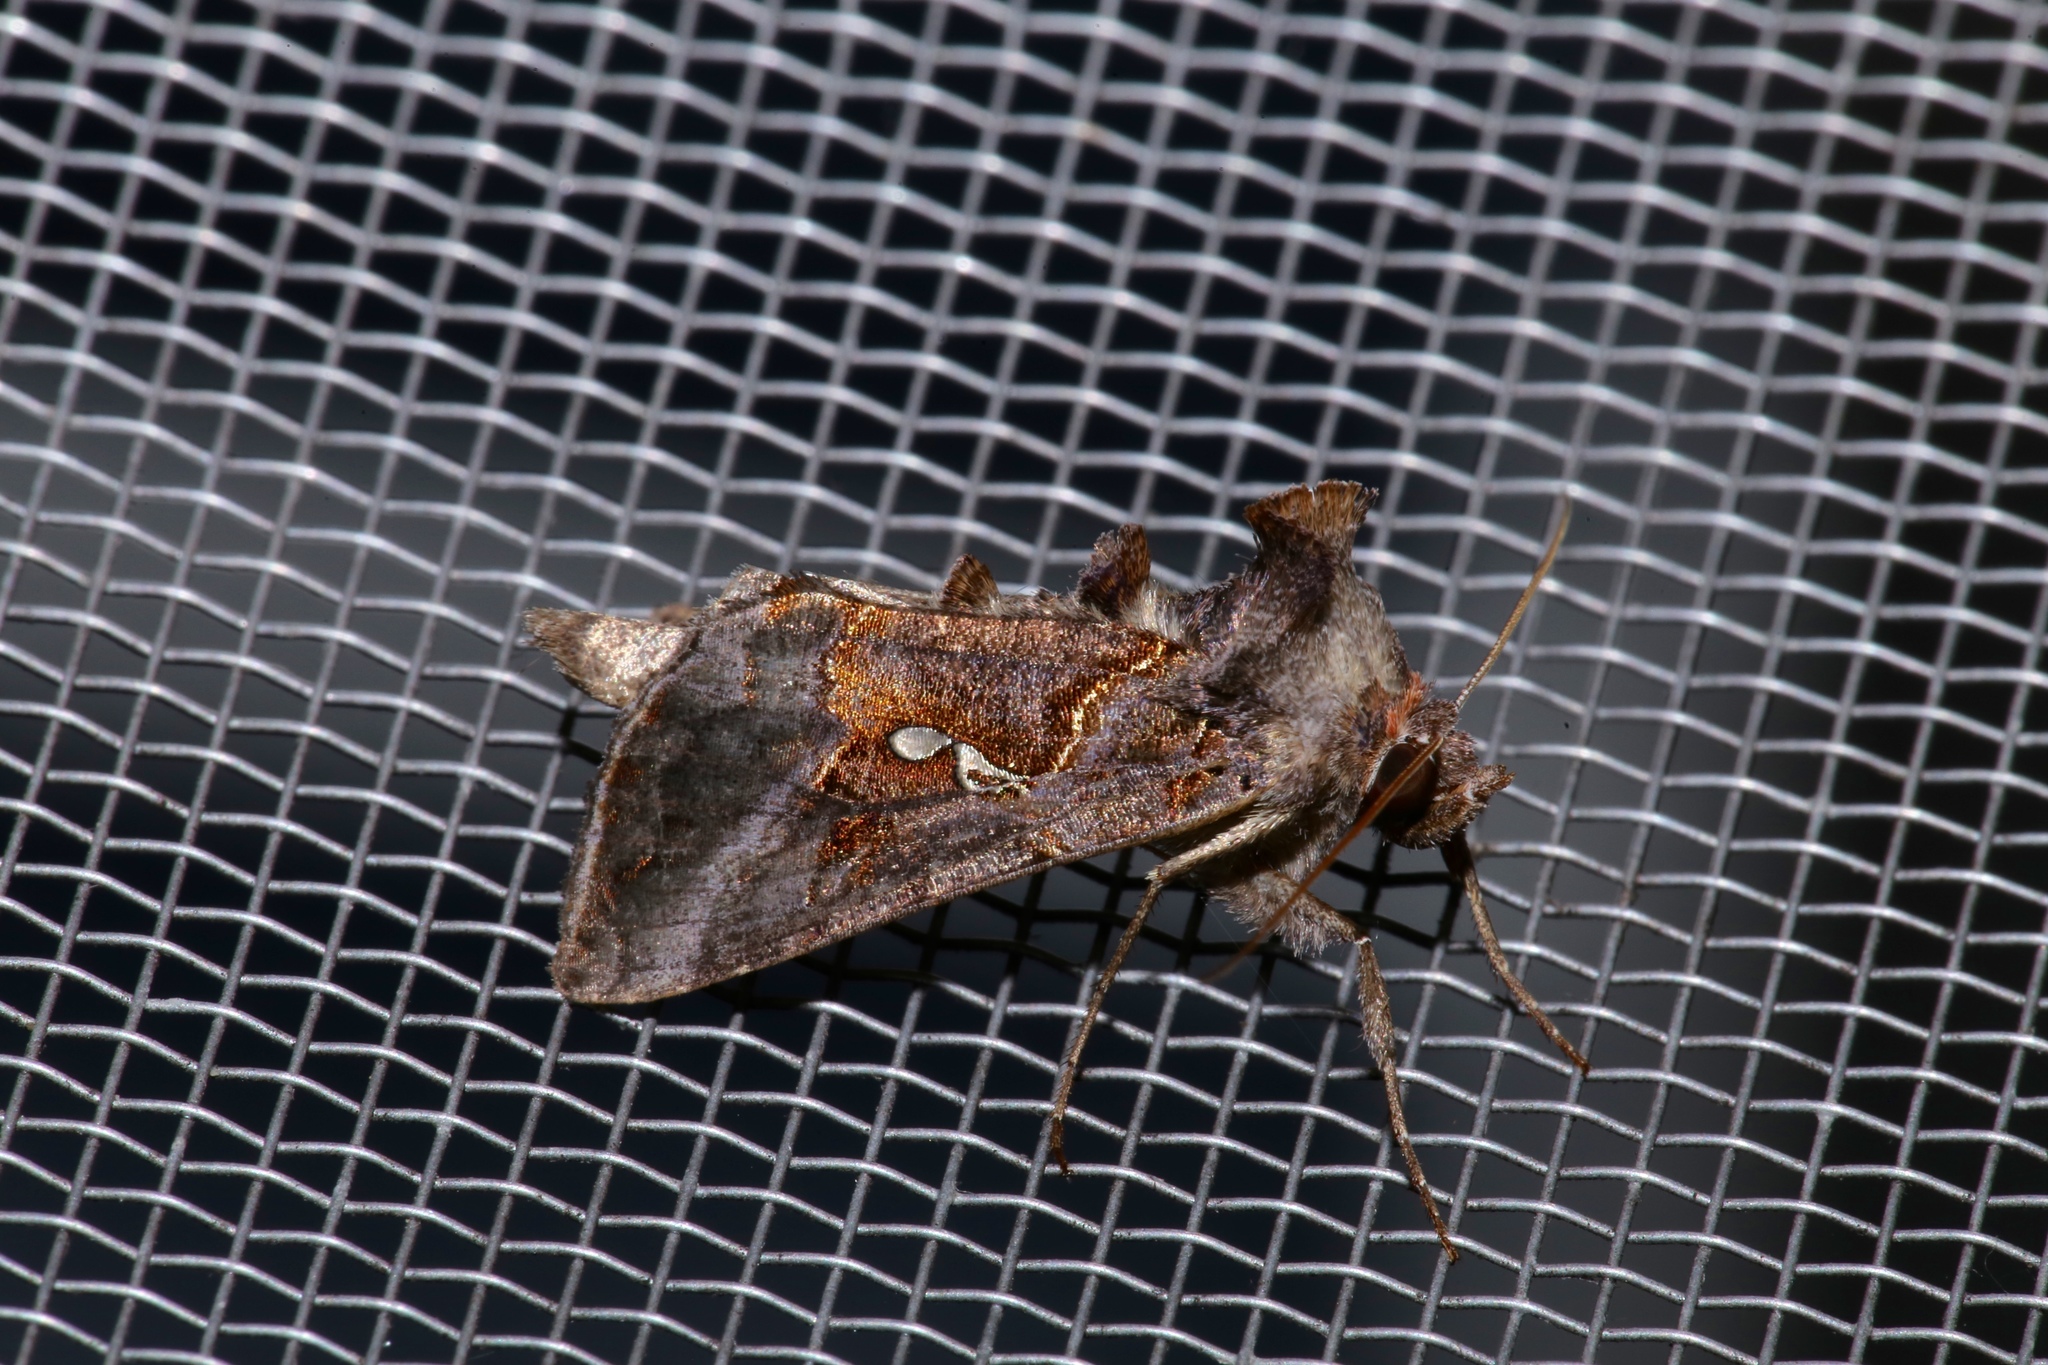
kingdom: Animalia
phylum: Arthropoda
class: Insecta
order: Lepidoptera
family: Noctuidae
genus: Autographa
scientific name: Autographa precationis
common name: Common looper moth
